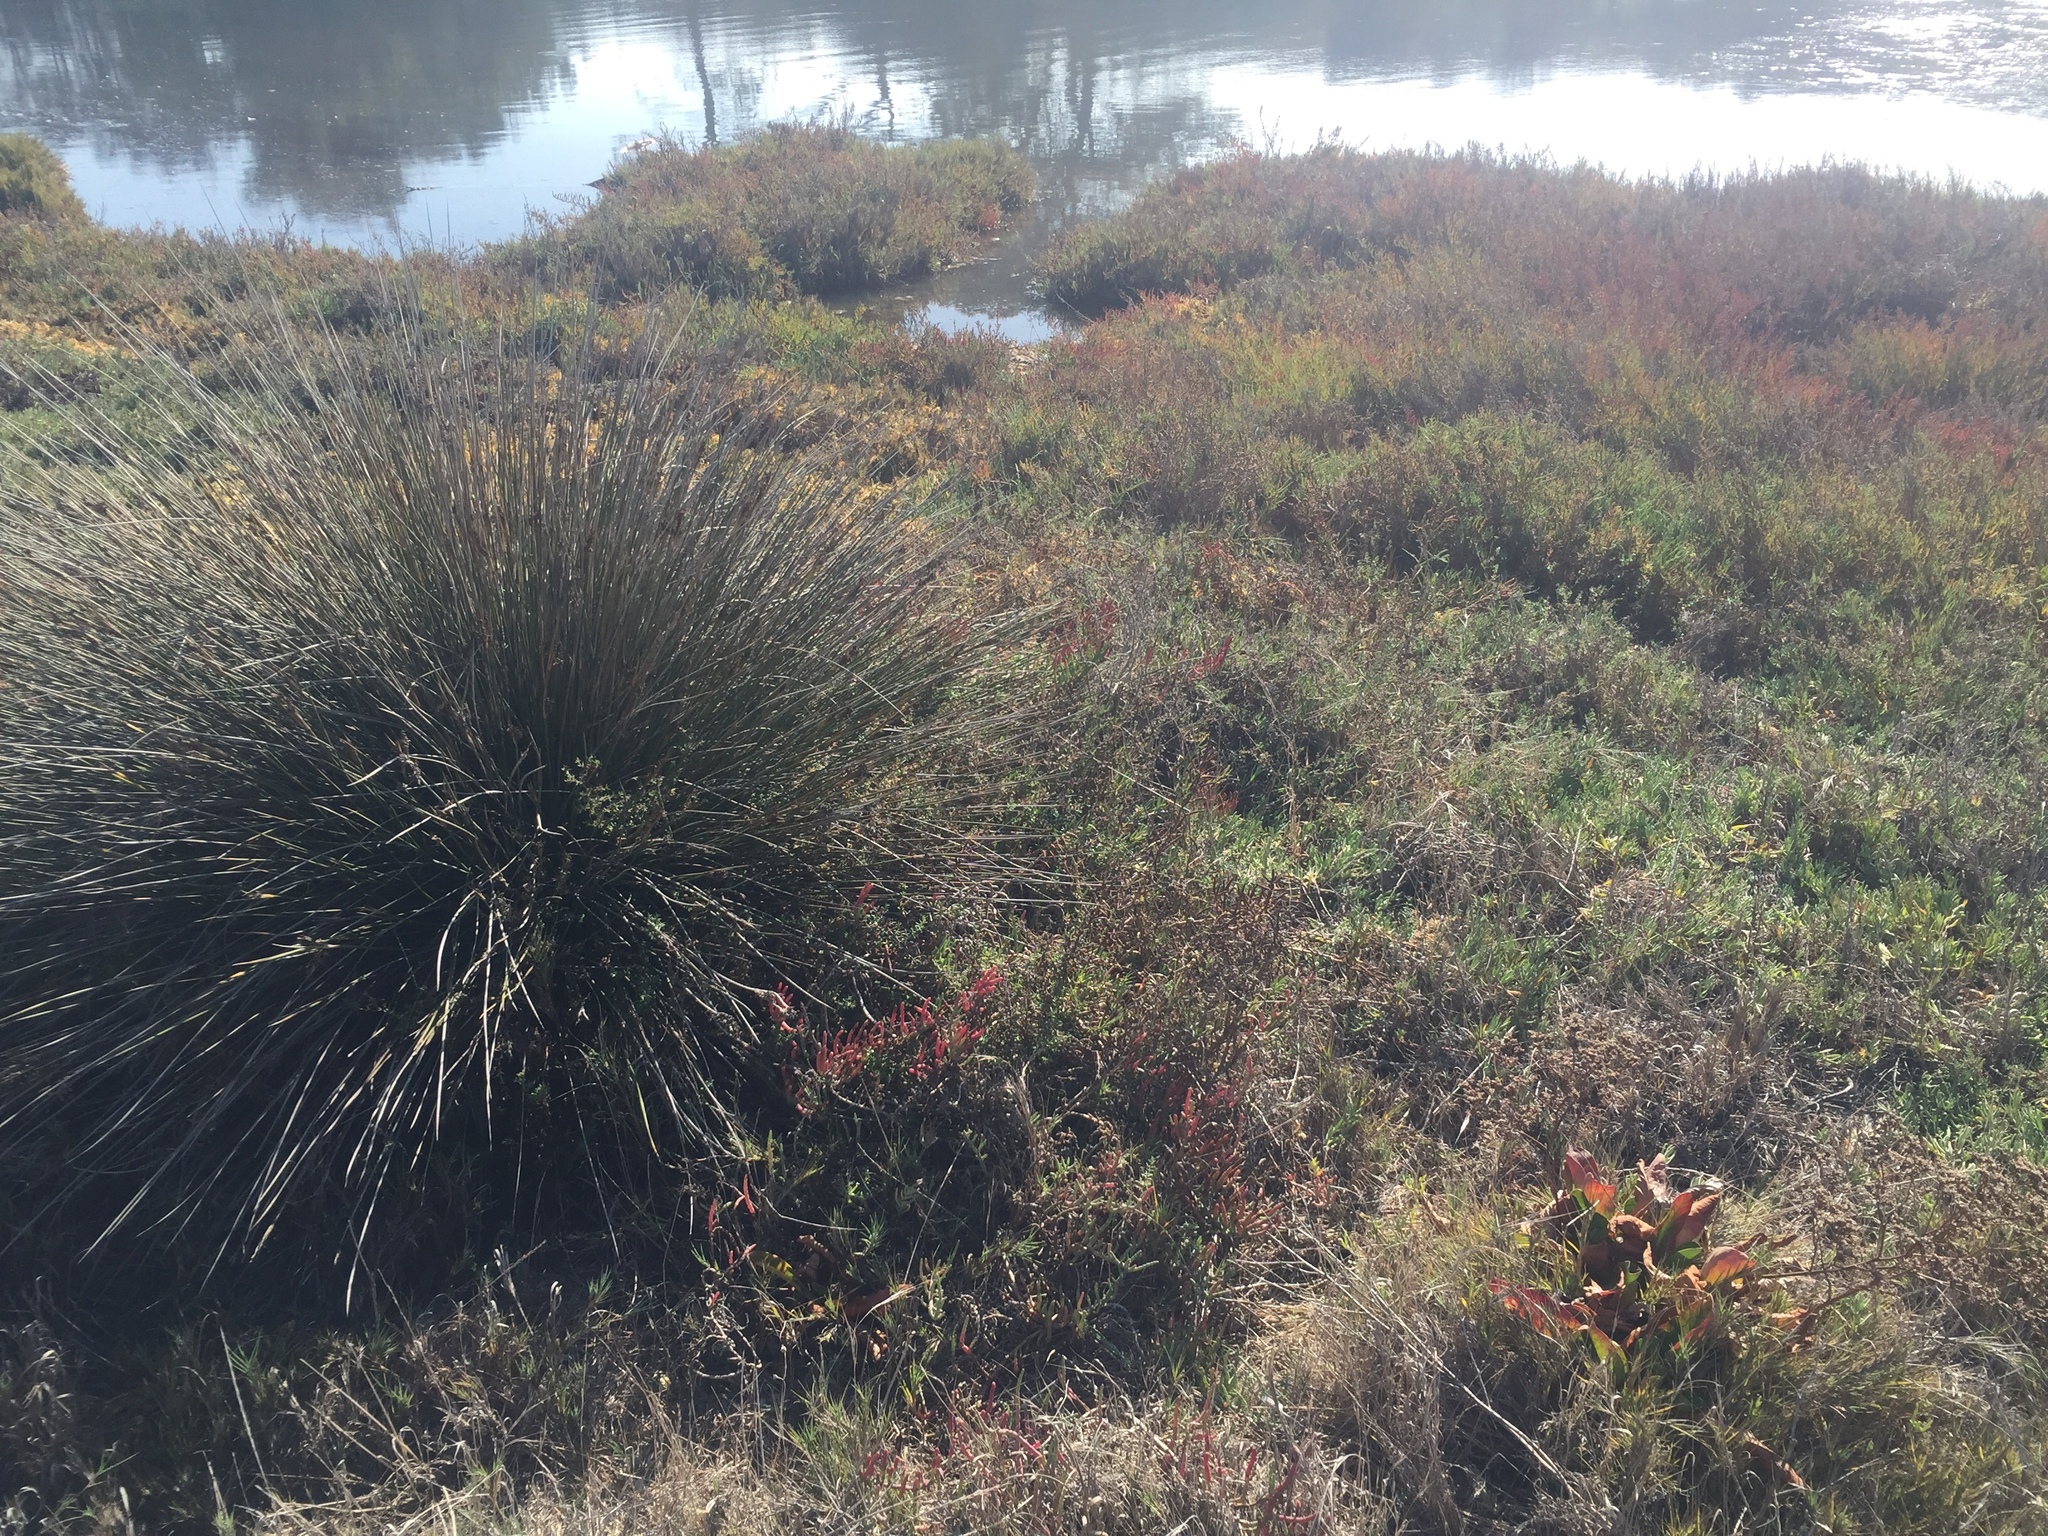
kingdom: Plantae
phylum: Tracheophyta
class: Liliopsida
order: Poales
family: Juncaceae
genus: Juncus
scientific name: Juncus acutus
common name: Sharp rush
